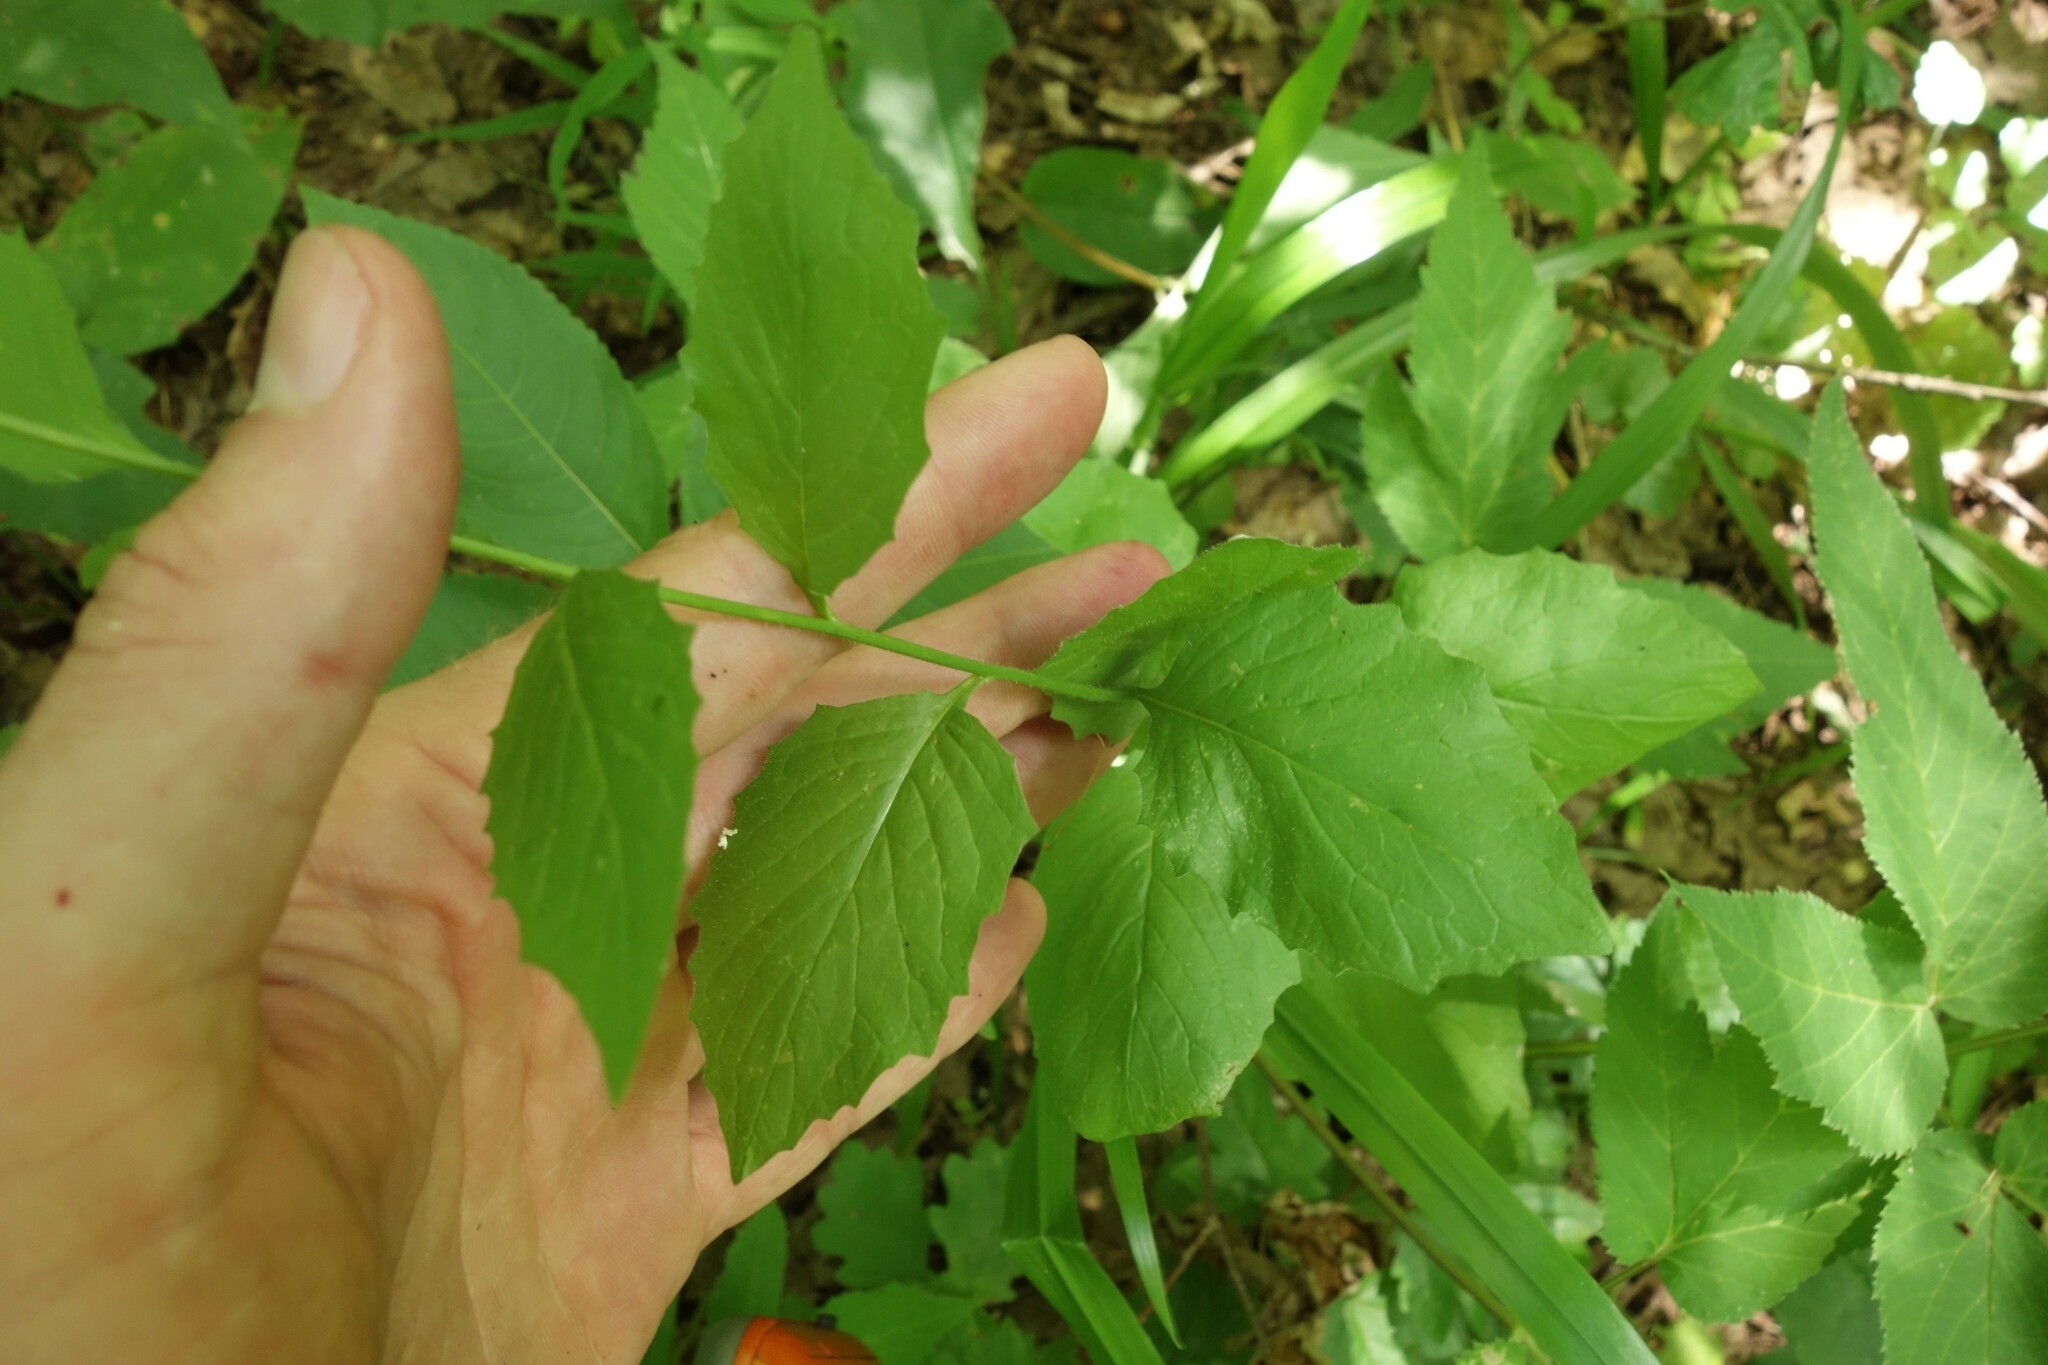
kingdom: Plantae
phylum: Tracheophyta
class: Magnoliopsida
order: Asterales
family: Asteraceae
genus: Lapsana
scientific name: Lapsana communis
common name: Nipplewort
